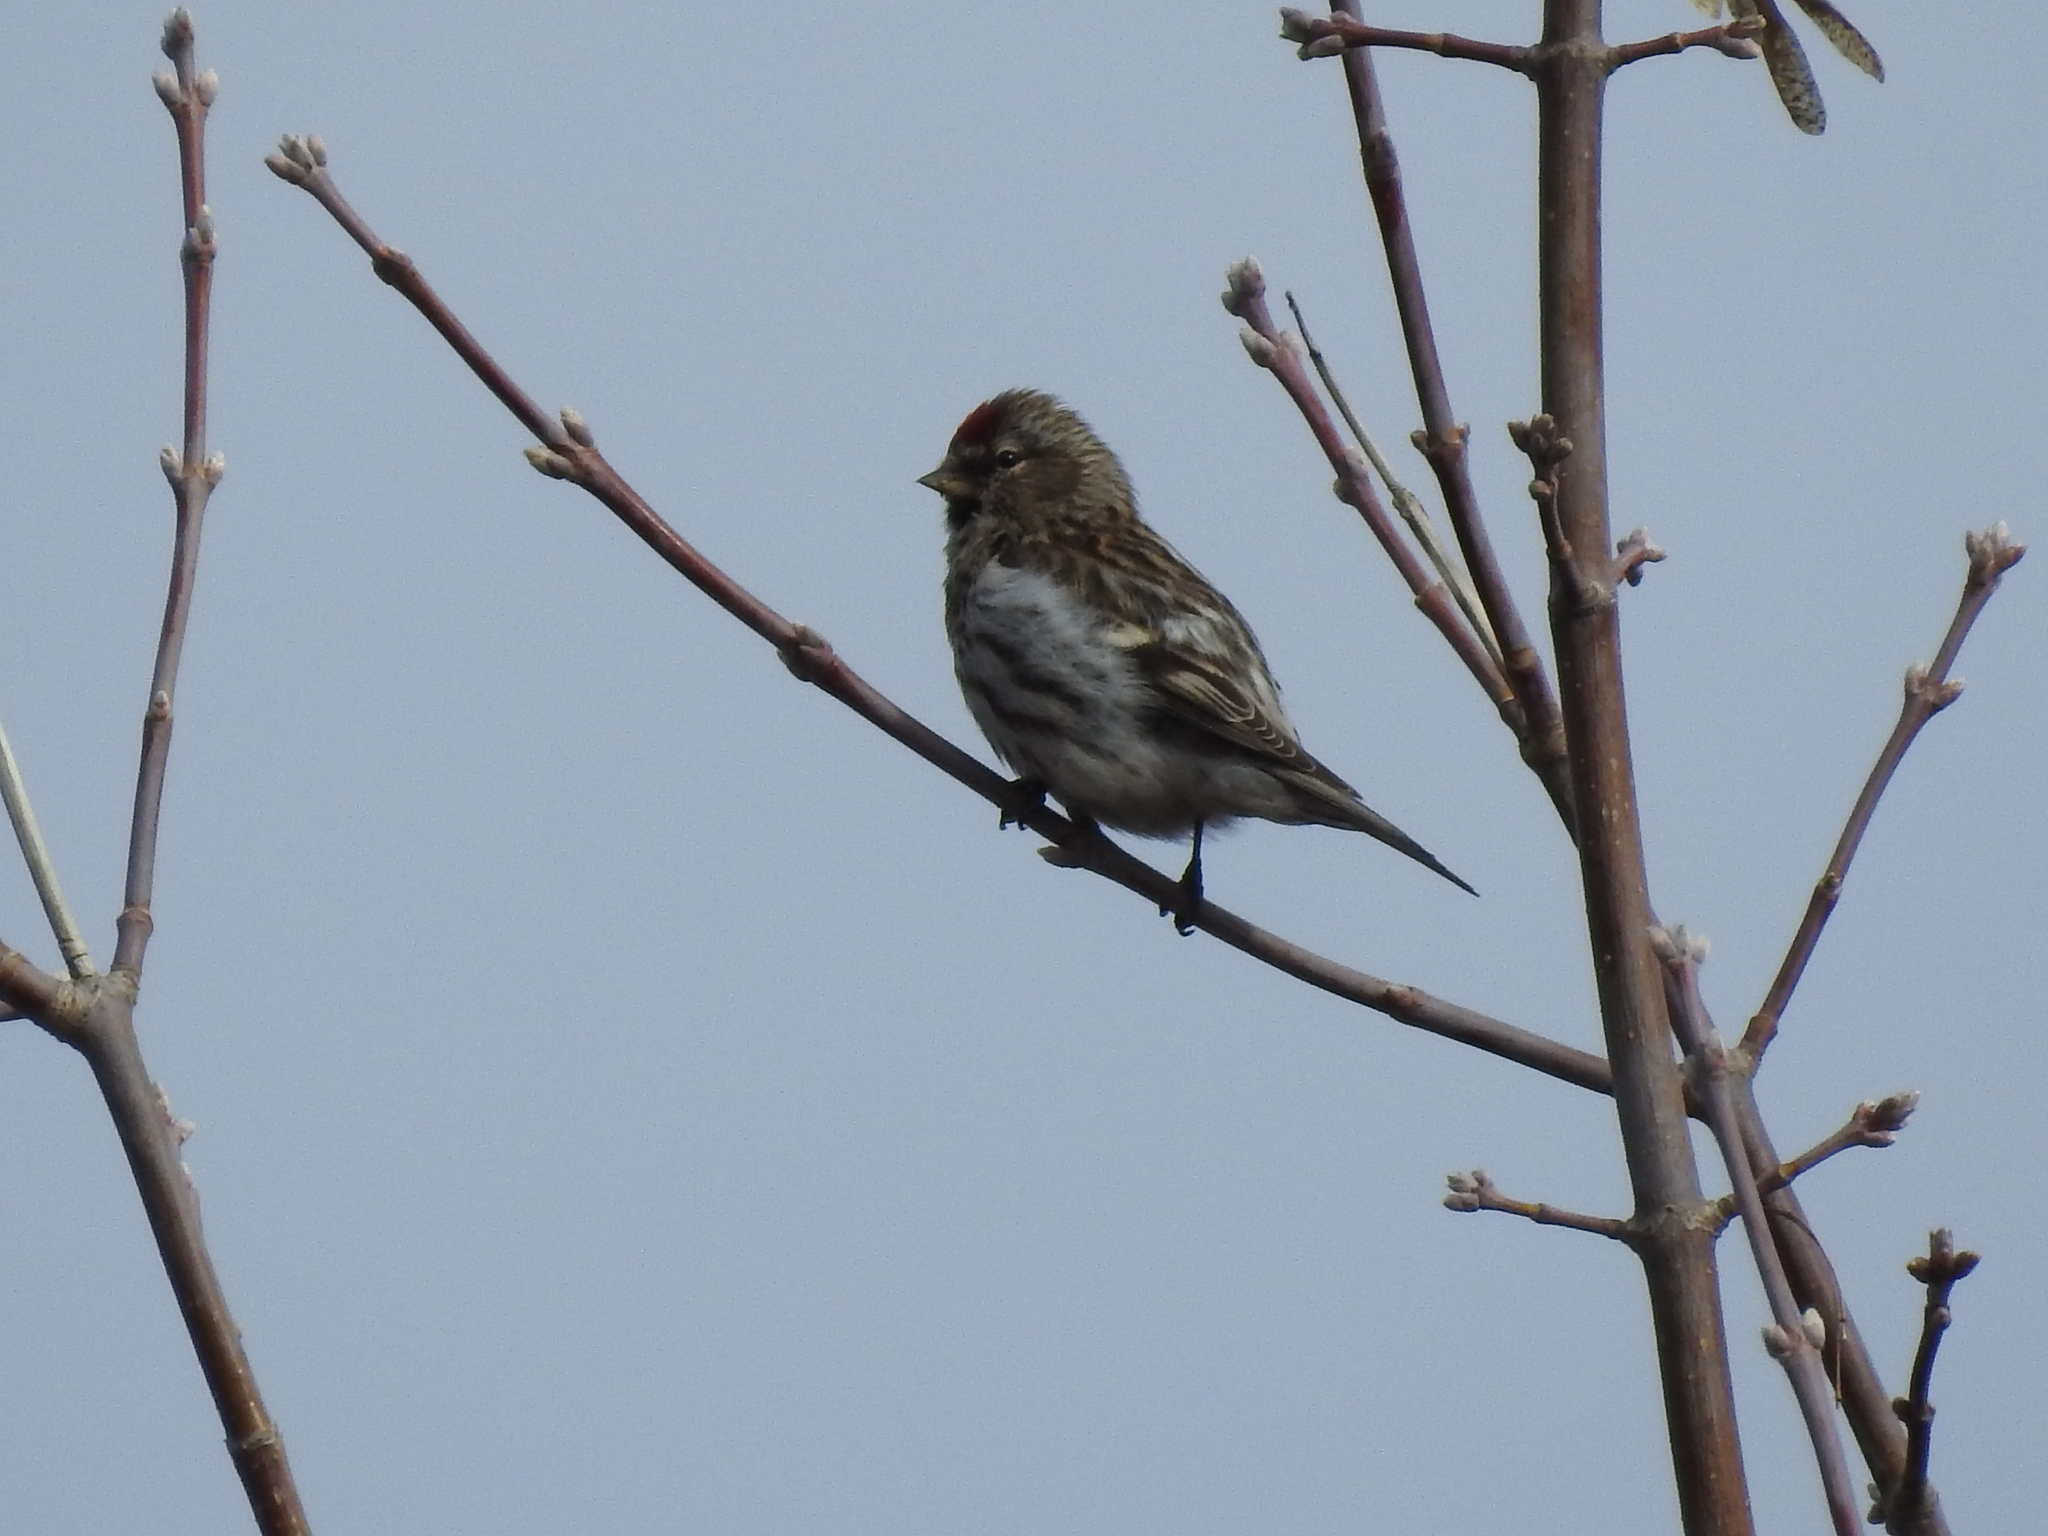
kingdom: Animalia
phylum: Chordata
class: Aves
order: Passeriformes
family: Fringillidae
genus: Acanthis
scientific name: Acanthis flammea
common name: Common redpoll
